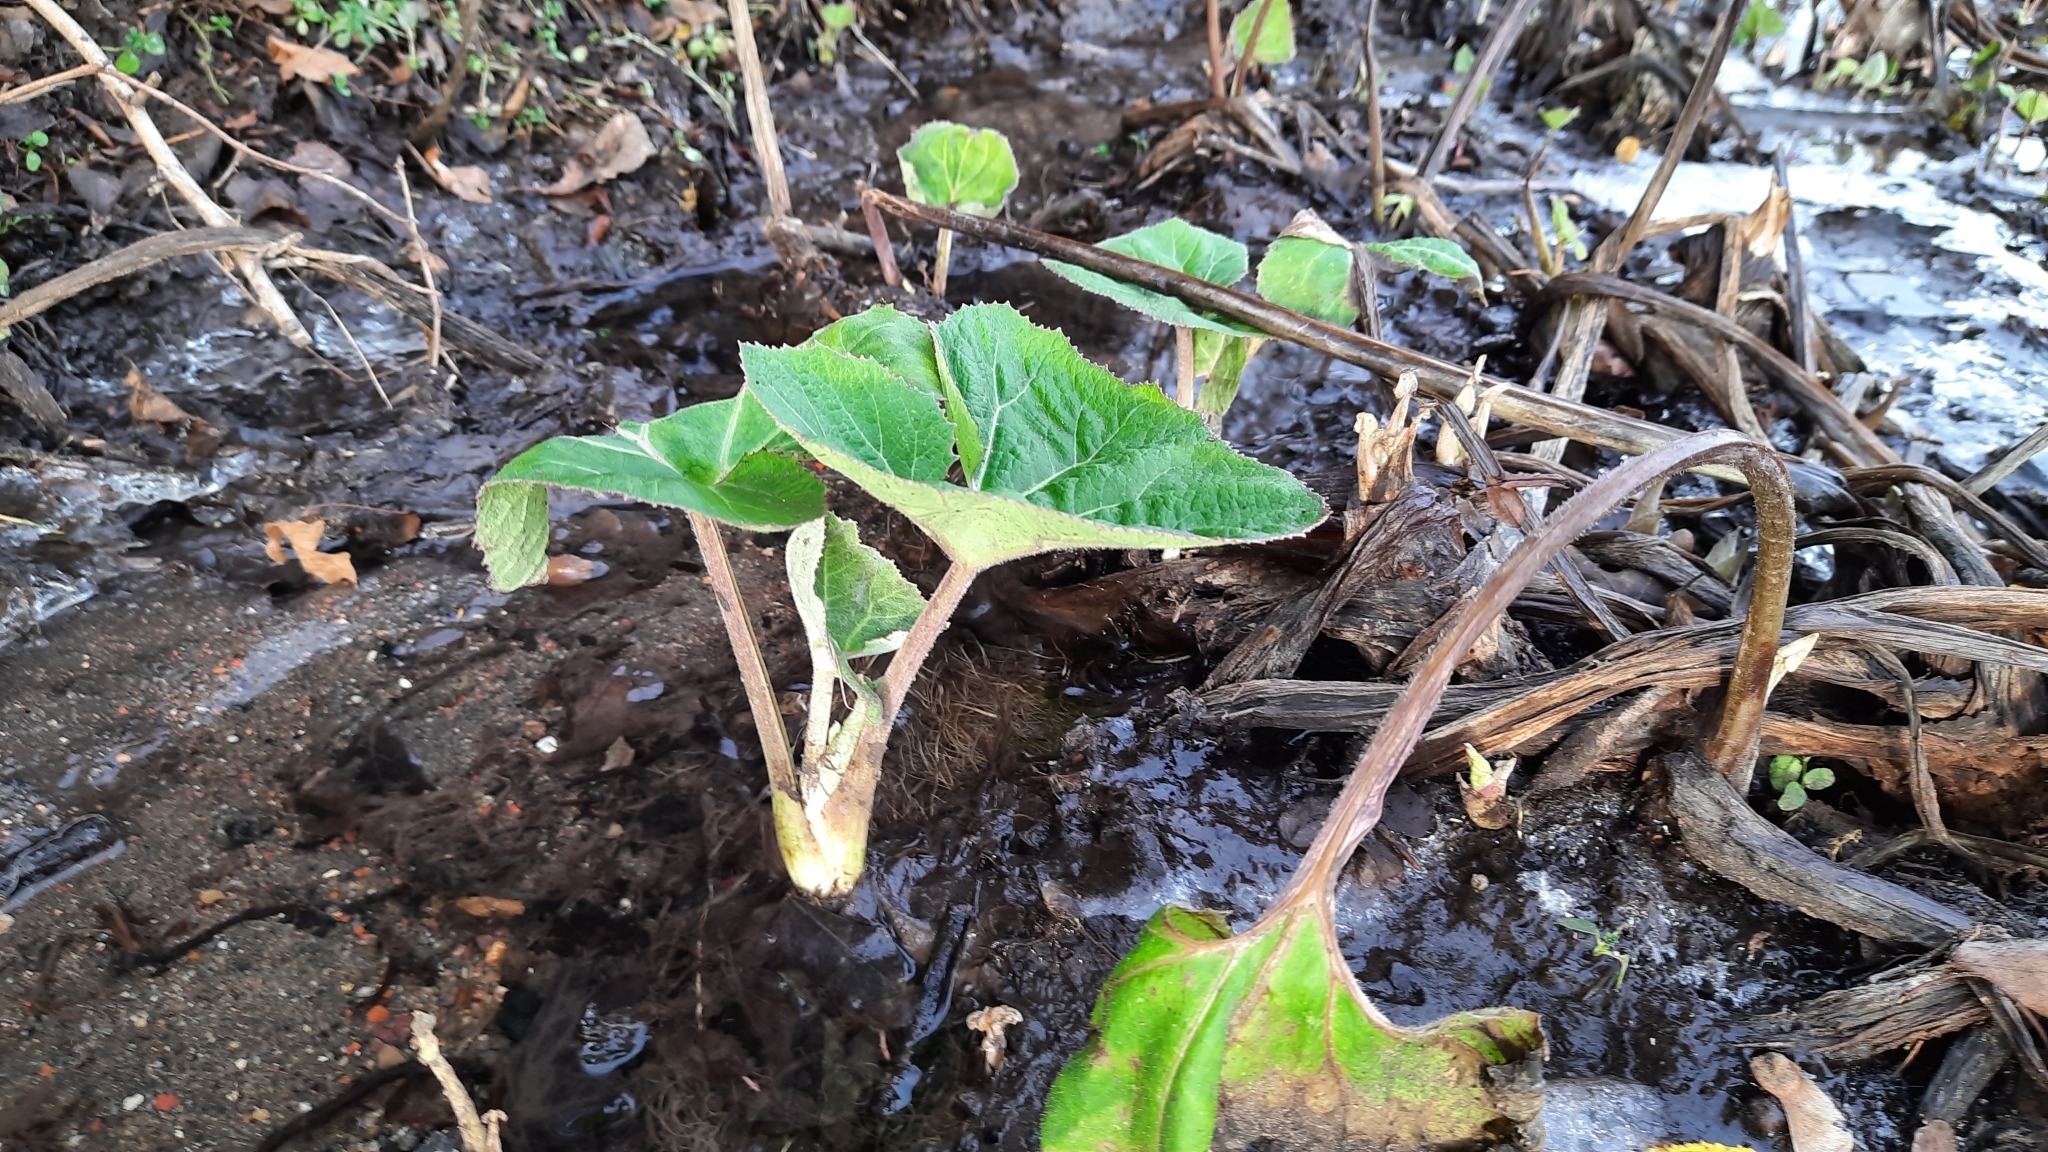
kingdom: Plantae
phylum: Tracheophyta
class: Magnoliopsida
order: Asterales
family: Asteraceae
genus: Petasites
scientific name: Petasites hybridus
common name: Butterbur
